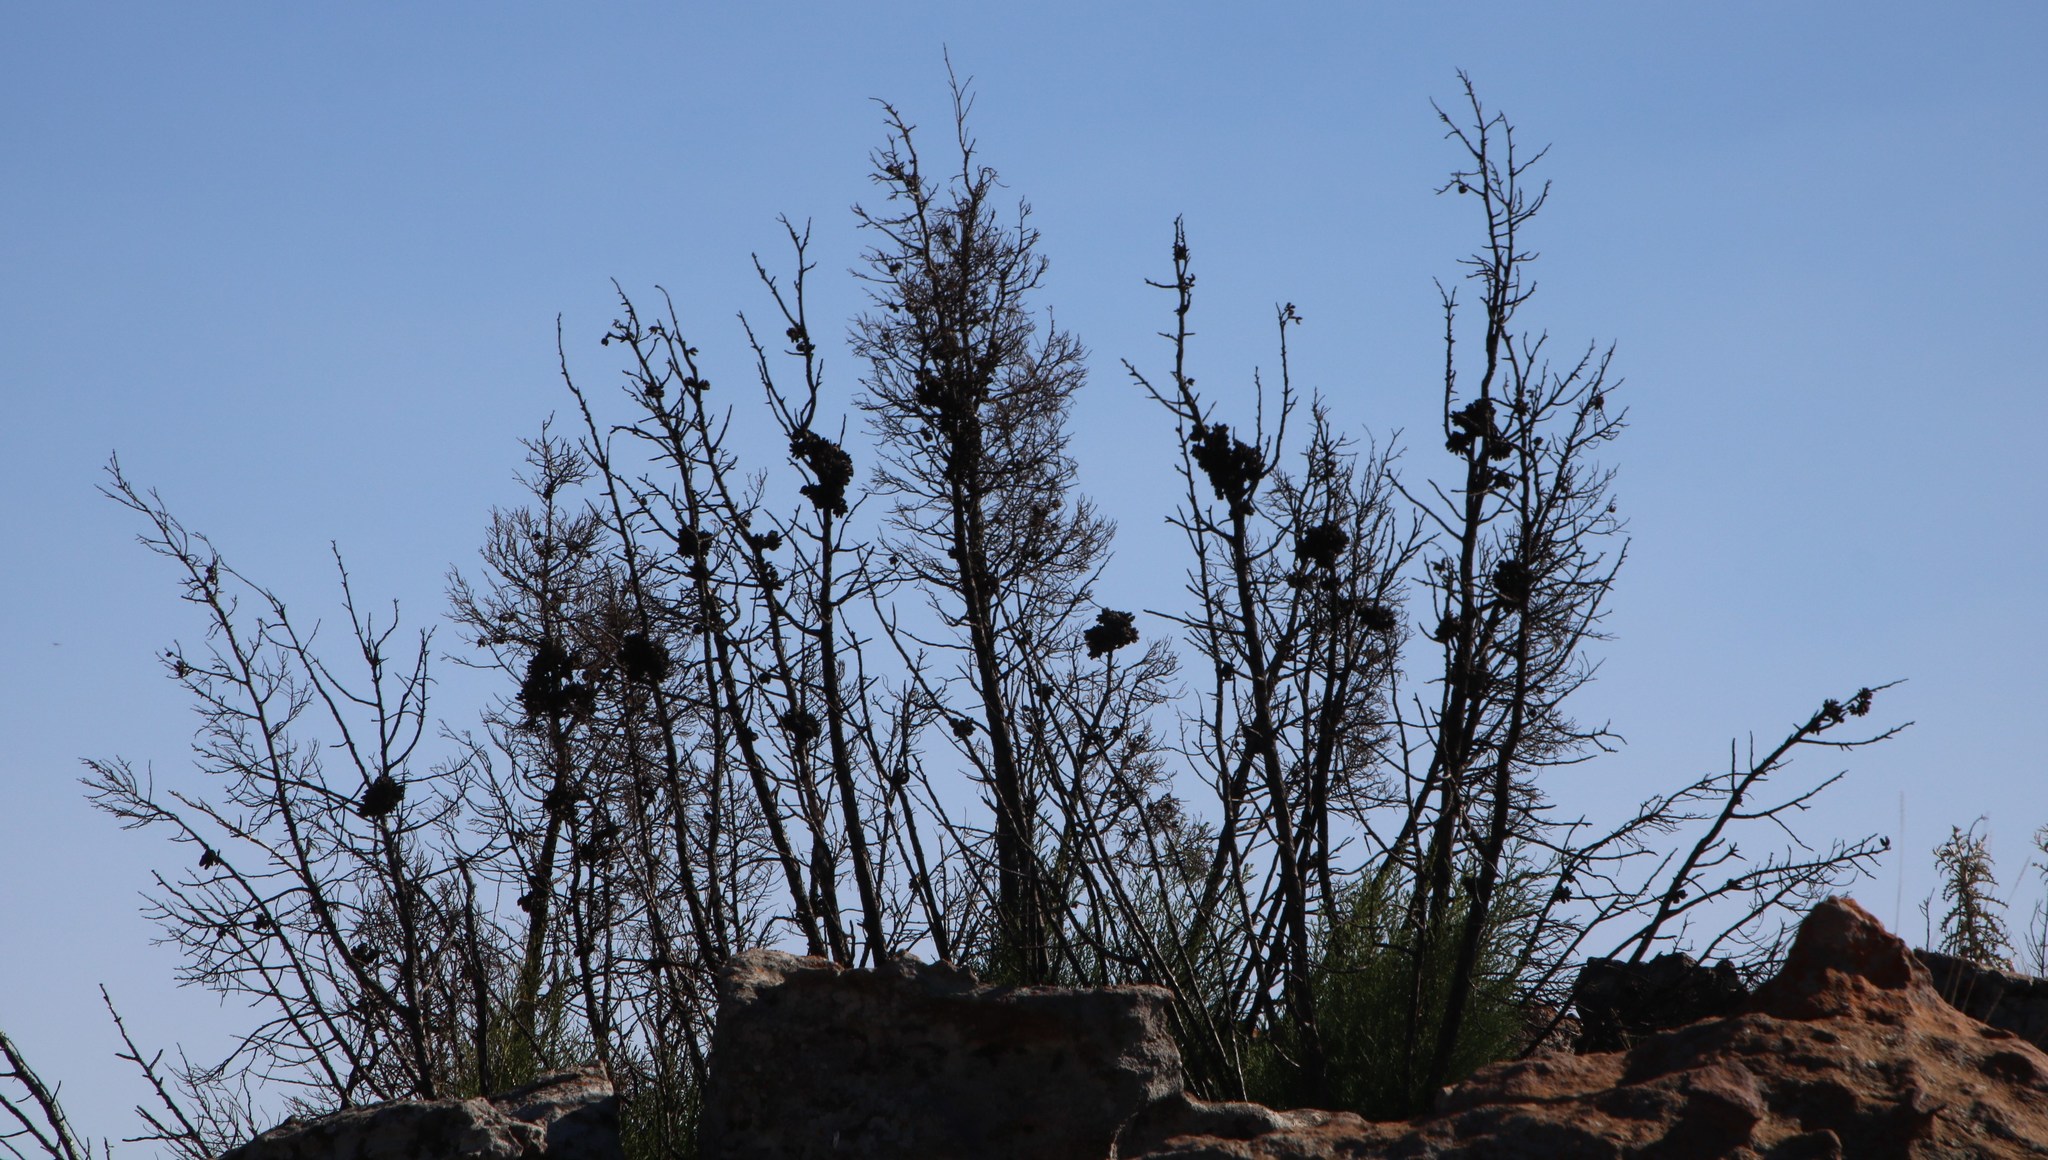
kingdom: Plantae
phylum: Tracheophyta
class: Pinopsida
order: Pinales
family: Cupressaceae
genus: Widdringtonia
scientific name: Widdringtonia nodiflora
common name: Cape cypress
